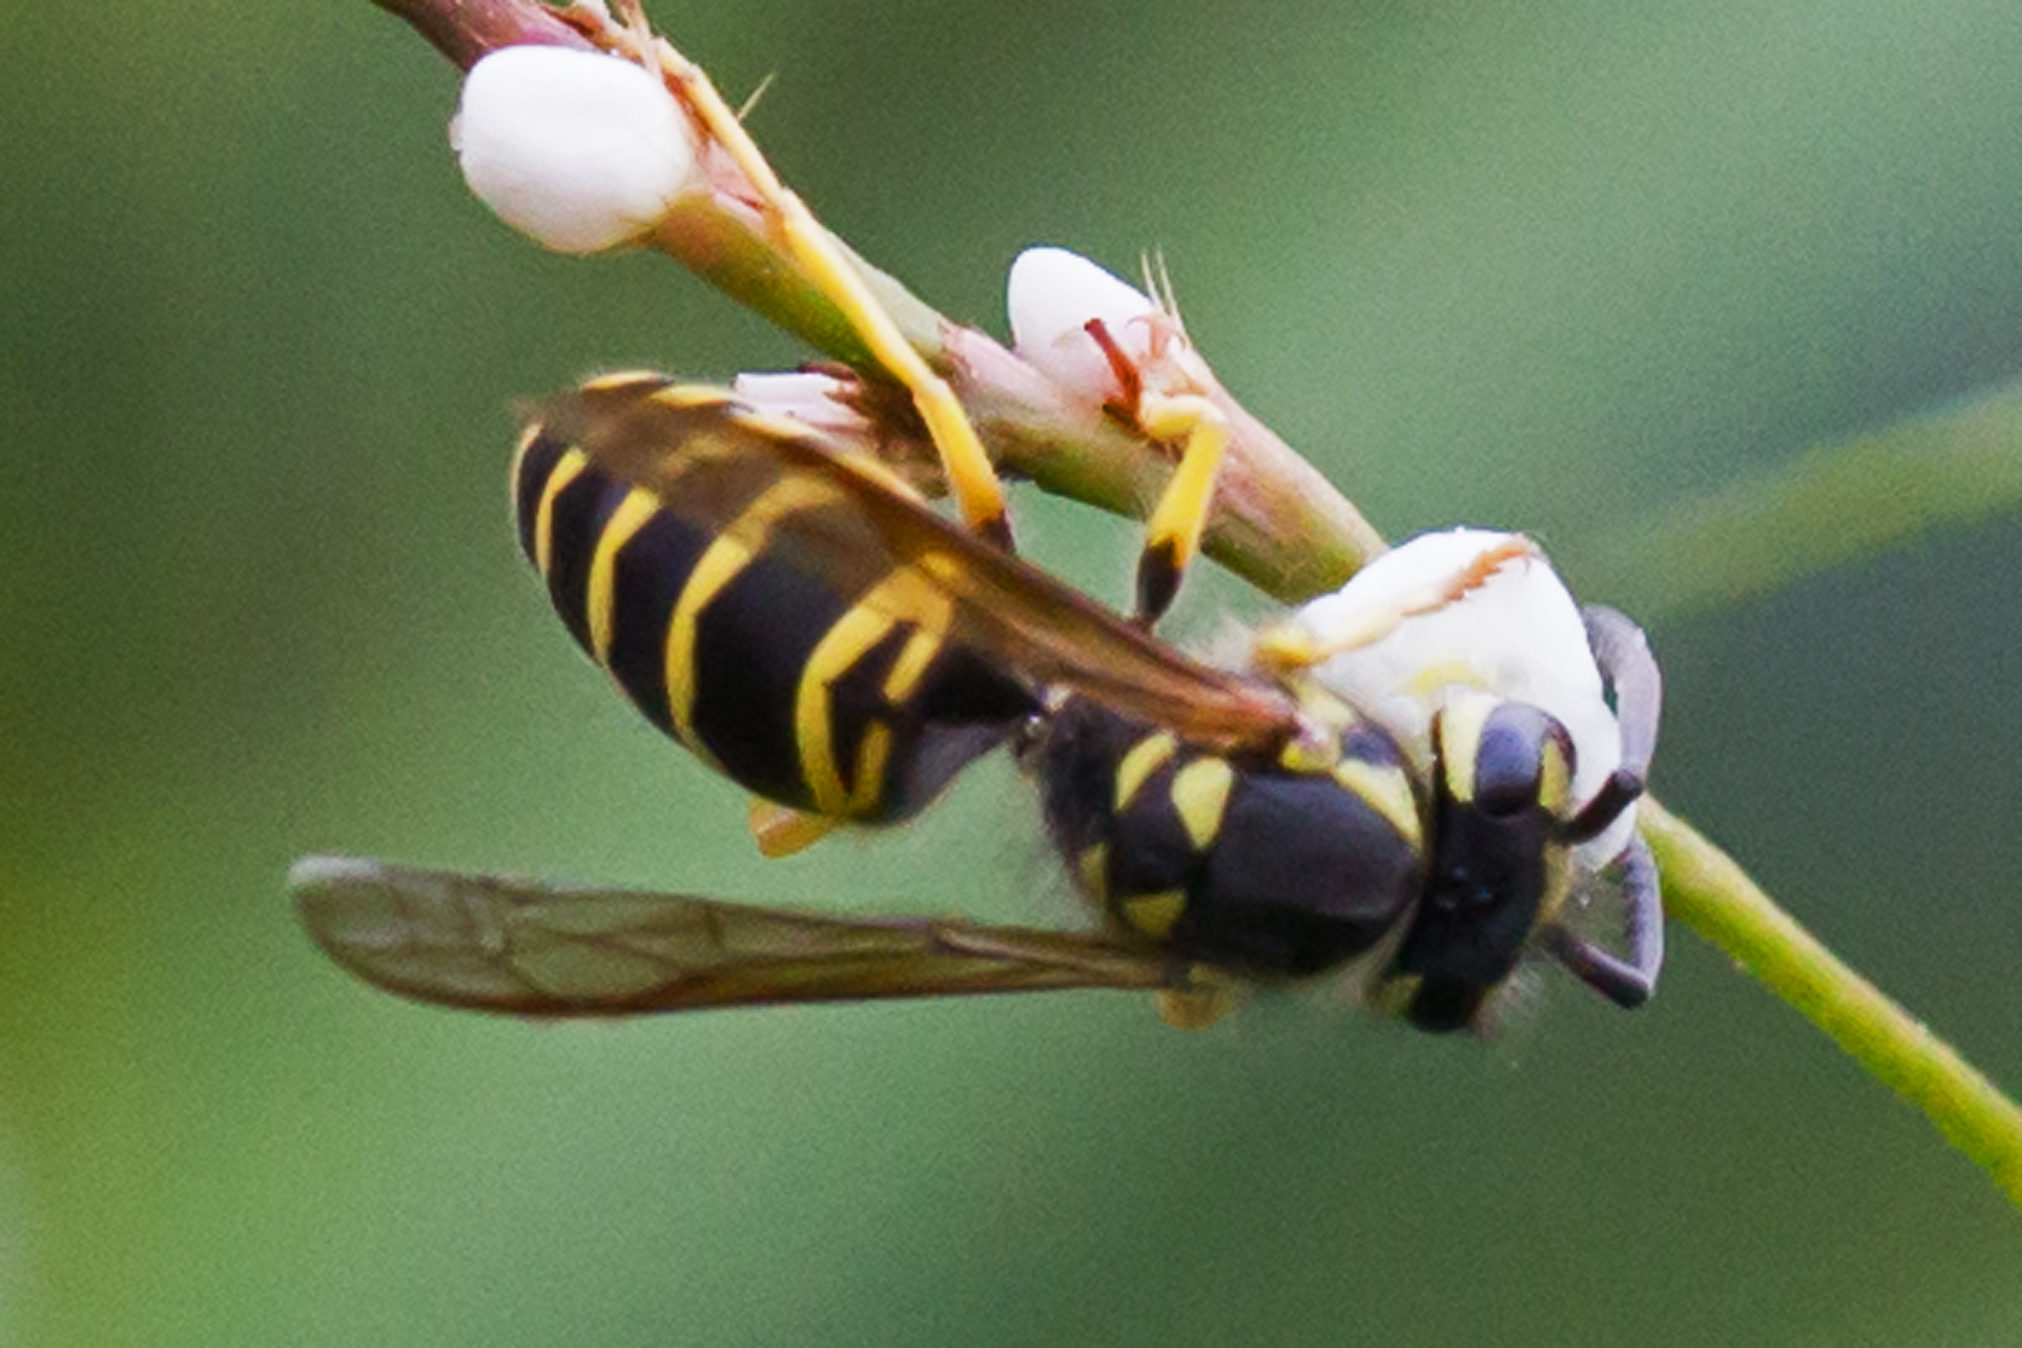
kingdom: Animalia
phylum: Arthropoda
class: Insecta
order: Hymenoptera
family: Vespidae
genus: Vespula
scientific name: Vespula maculifrons
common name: Eastern yellowjacket
